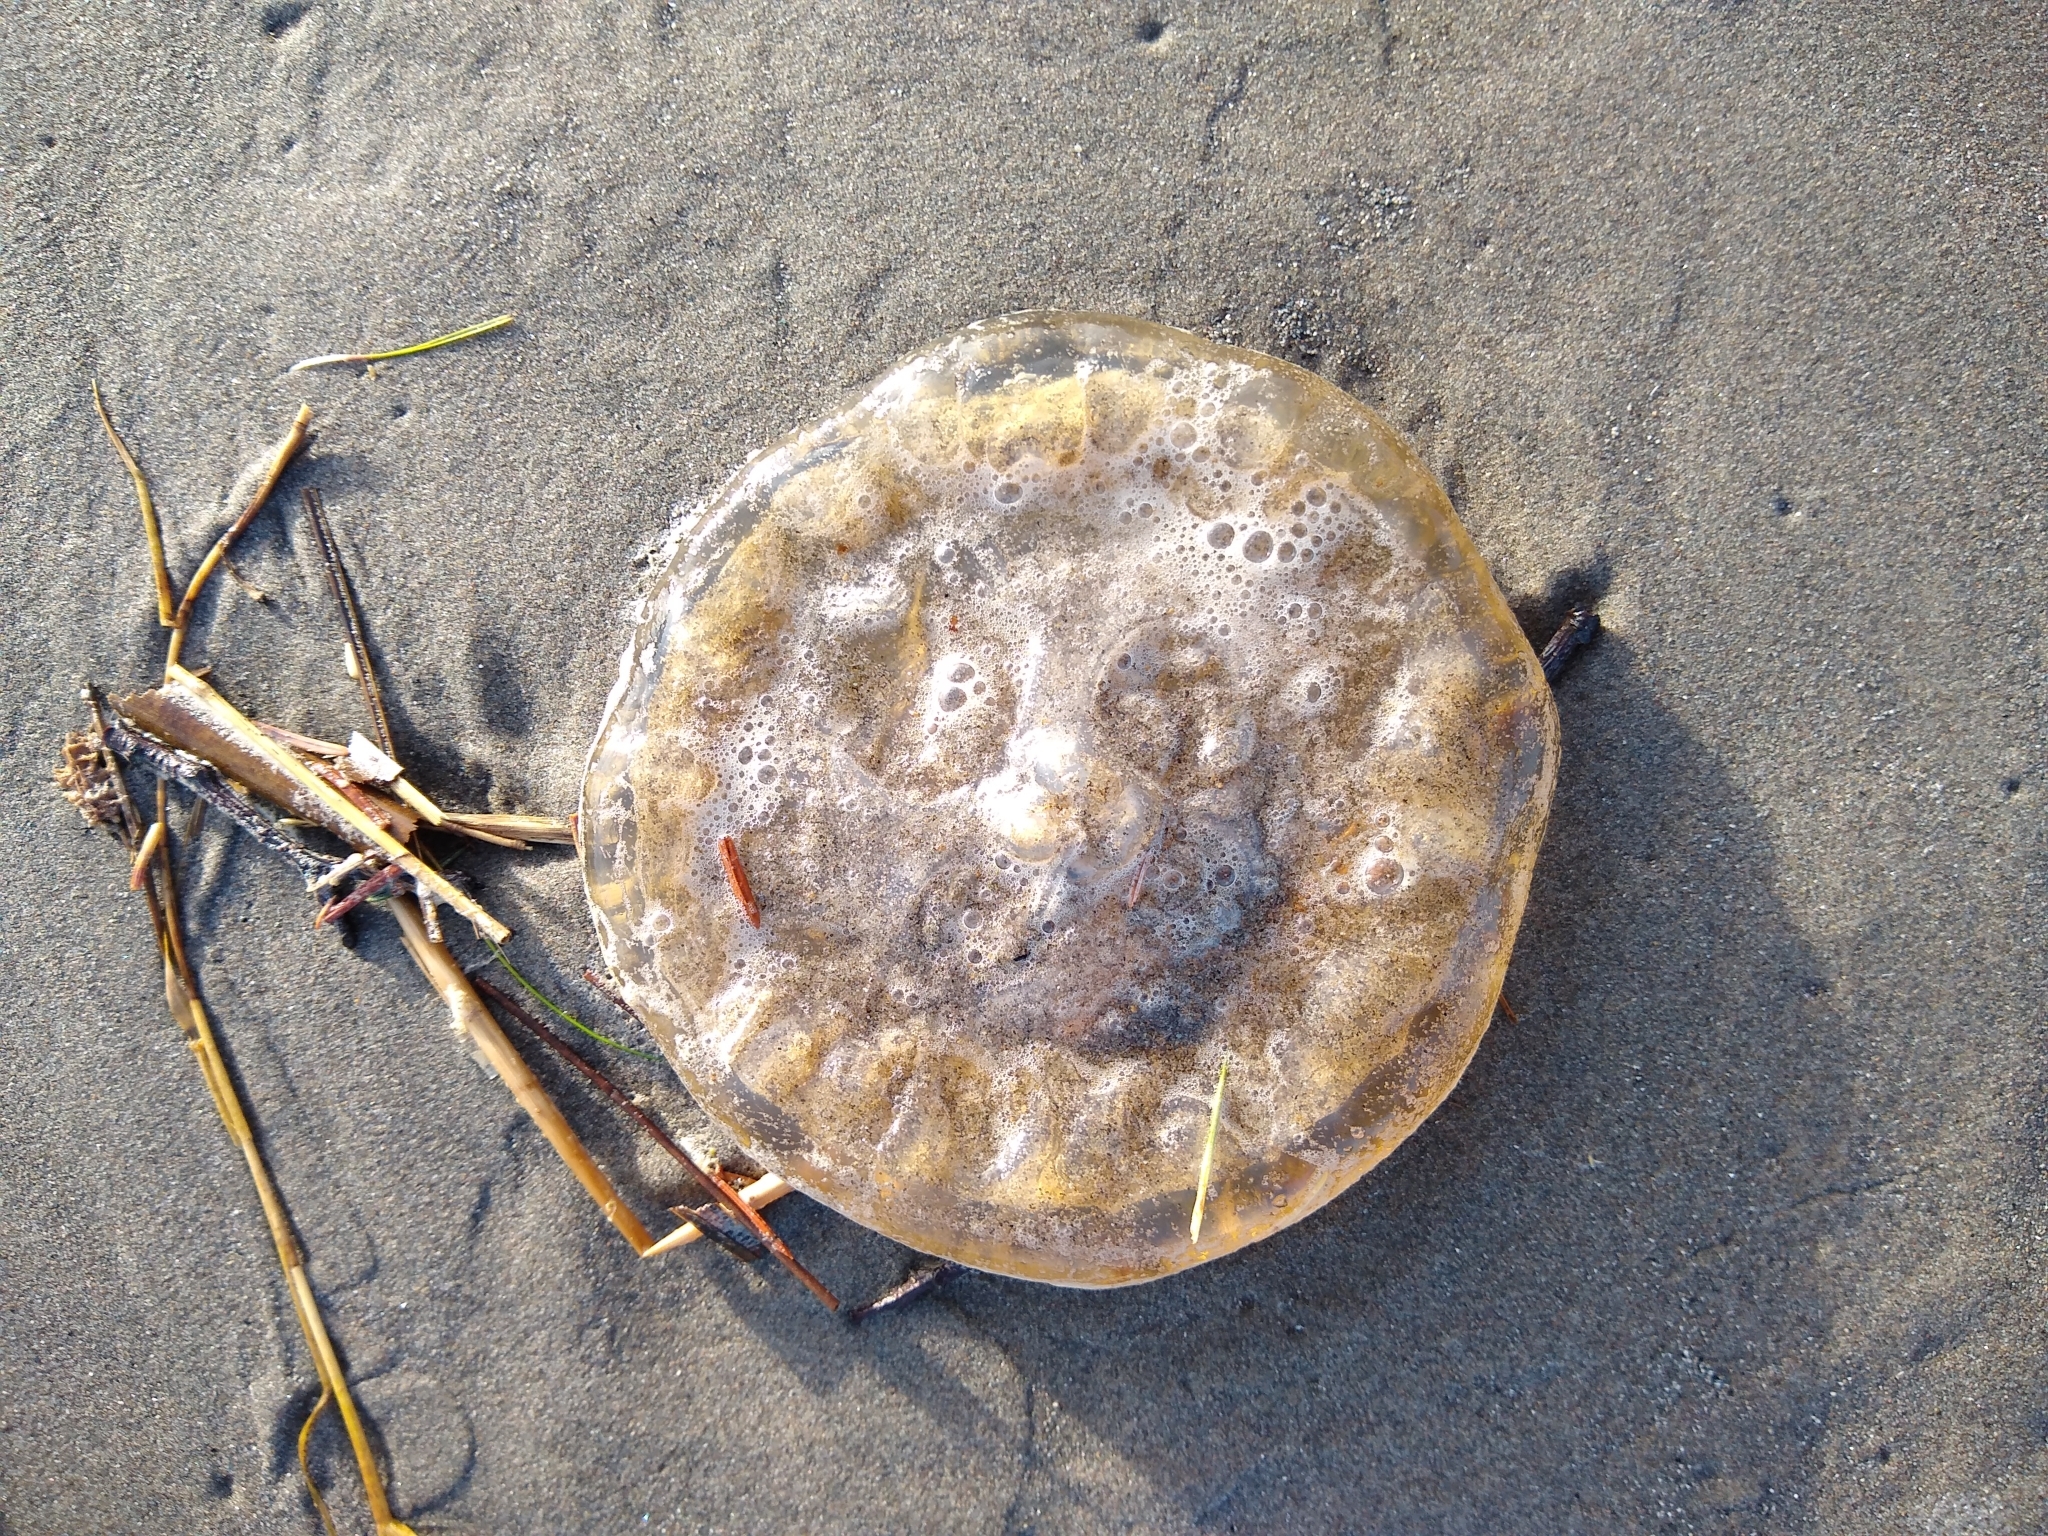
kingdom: Animalia
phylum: Cnidaria
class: Scyphozoa
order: Semaeostomeae
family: Pelagiidae
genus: Chrysaora
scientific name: Chrysaora fuscescens
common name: Sea nettle
